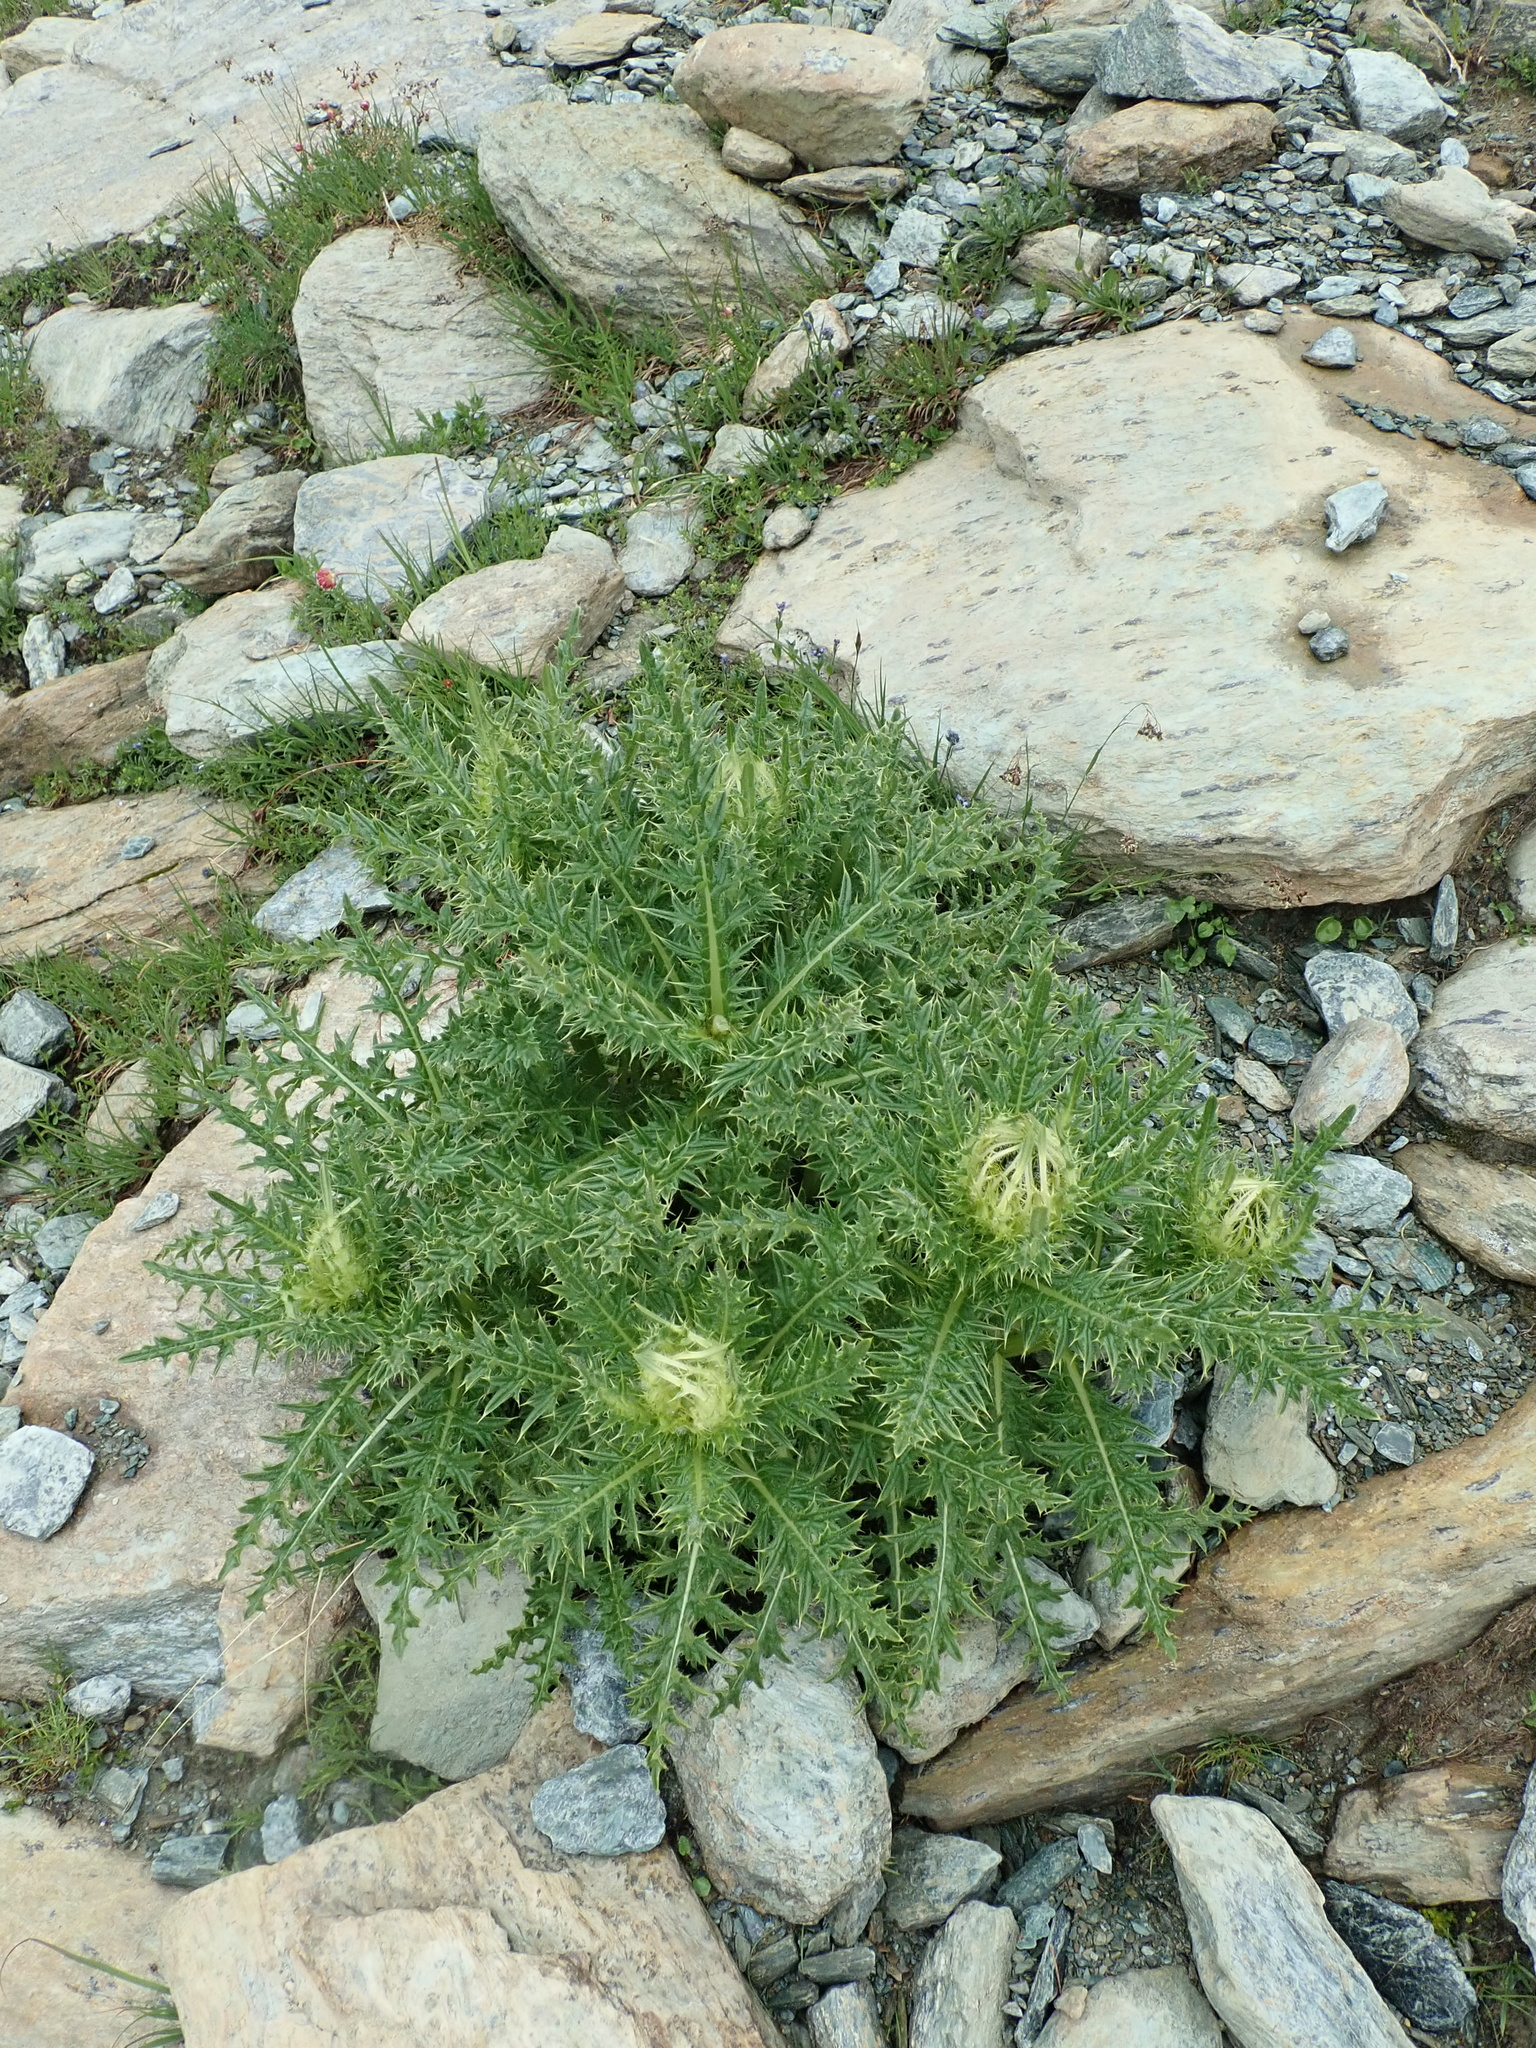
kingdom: Plantae
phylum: Tracheophyta
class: Magnoliopsida
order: Asterales
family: Asteraceae
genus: Cirsium
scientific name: Cirsium spinosissimum
